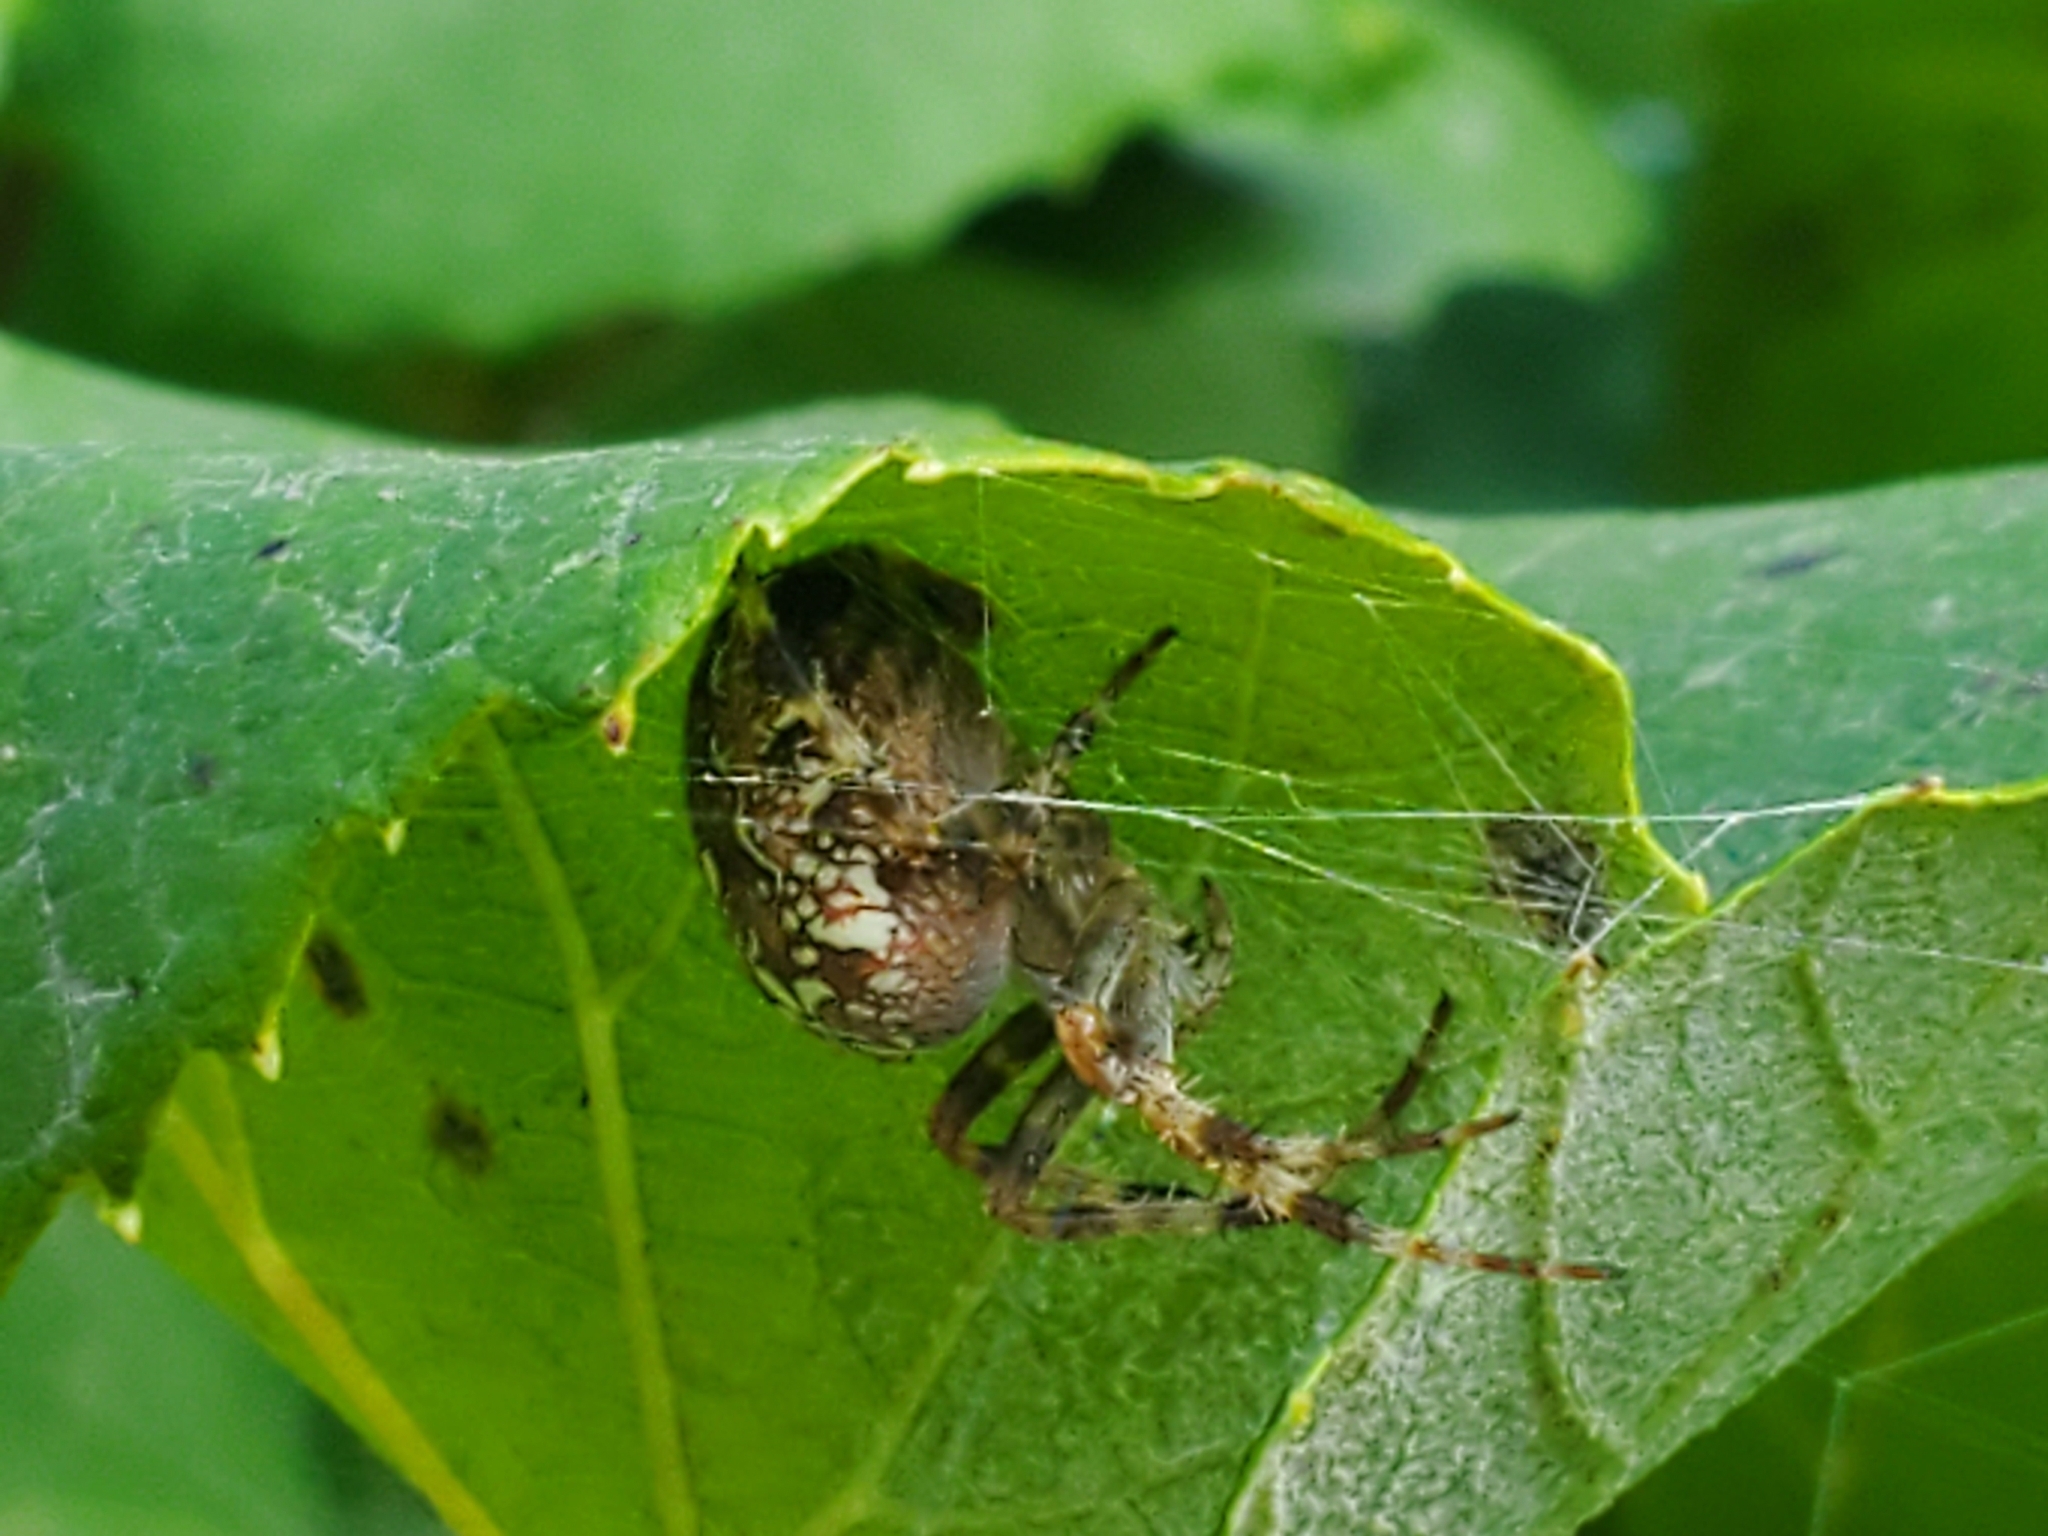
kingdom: Animalia
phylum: Arthropoda
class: Arachnida
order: Araneae
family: Araneidae
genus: Araneus
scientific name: Araneus diadematus
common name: Cross orbweaver
